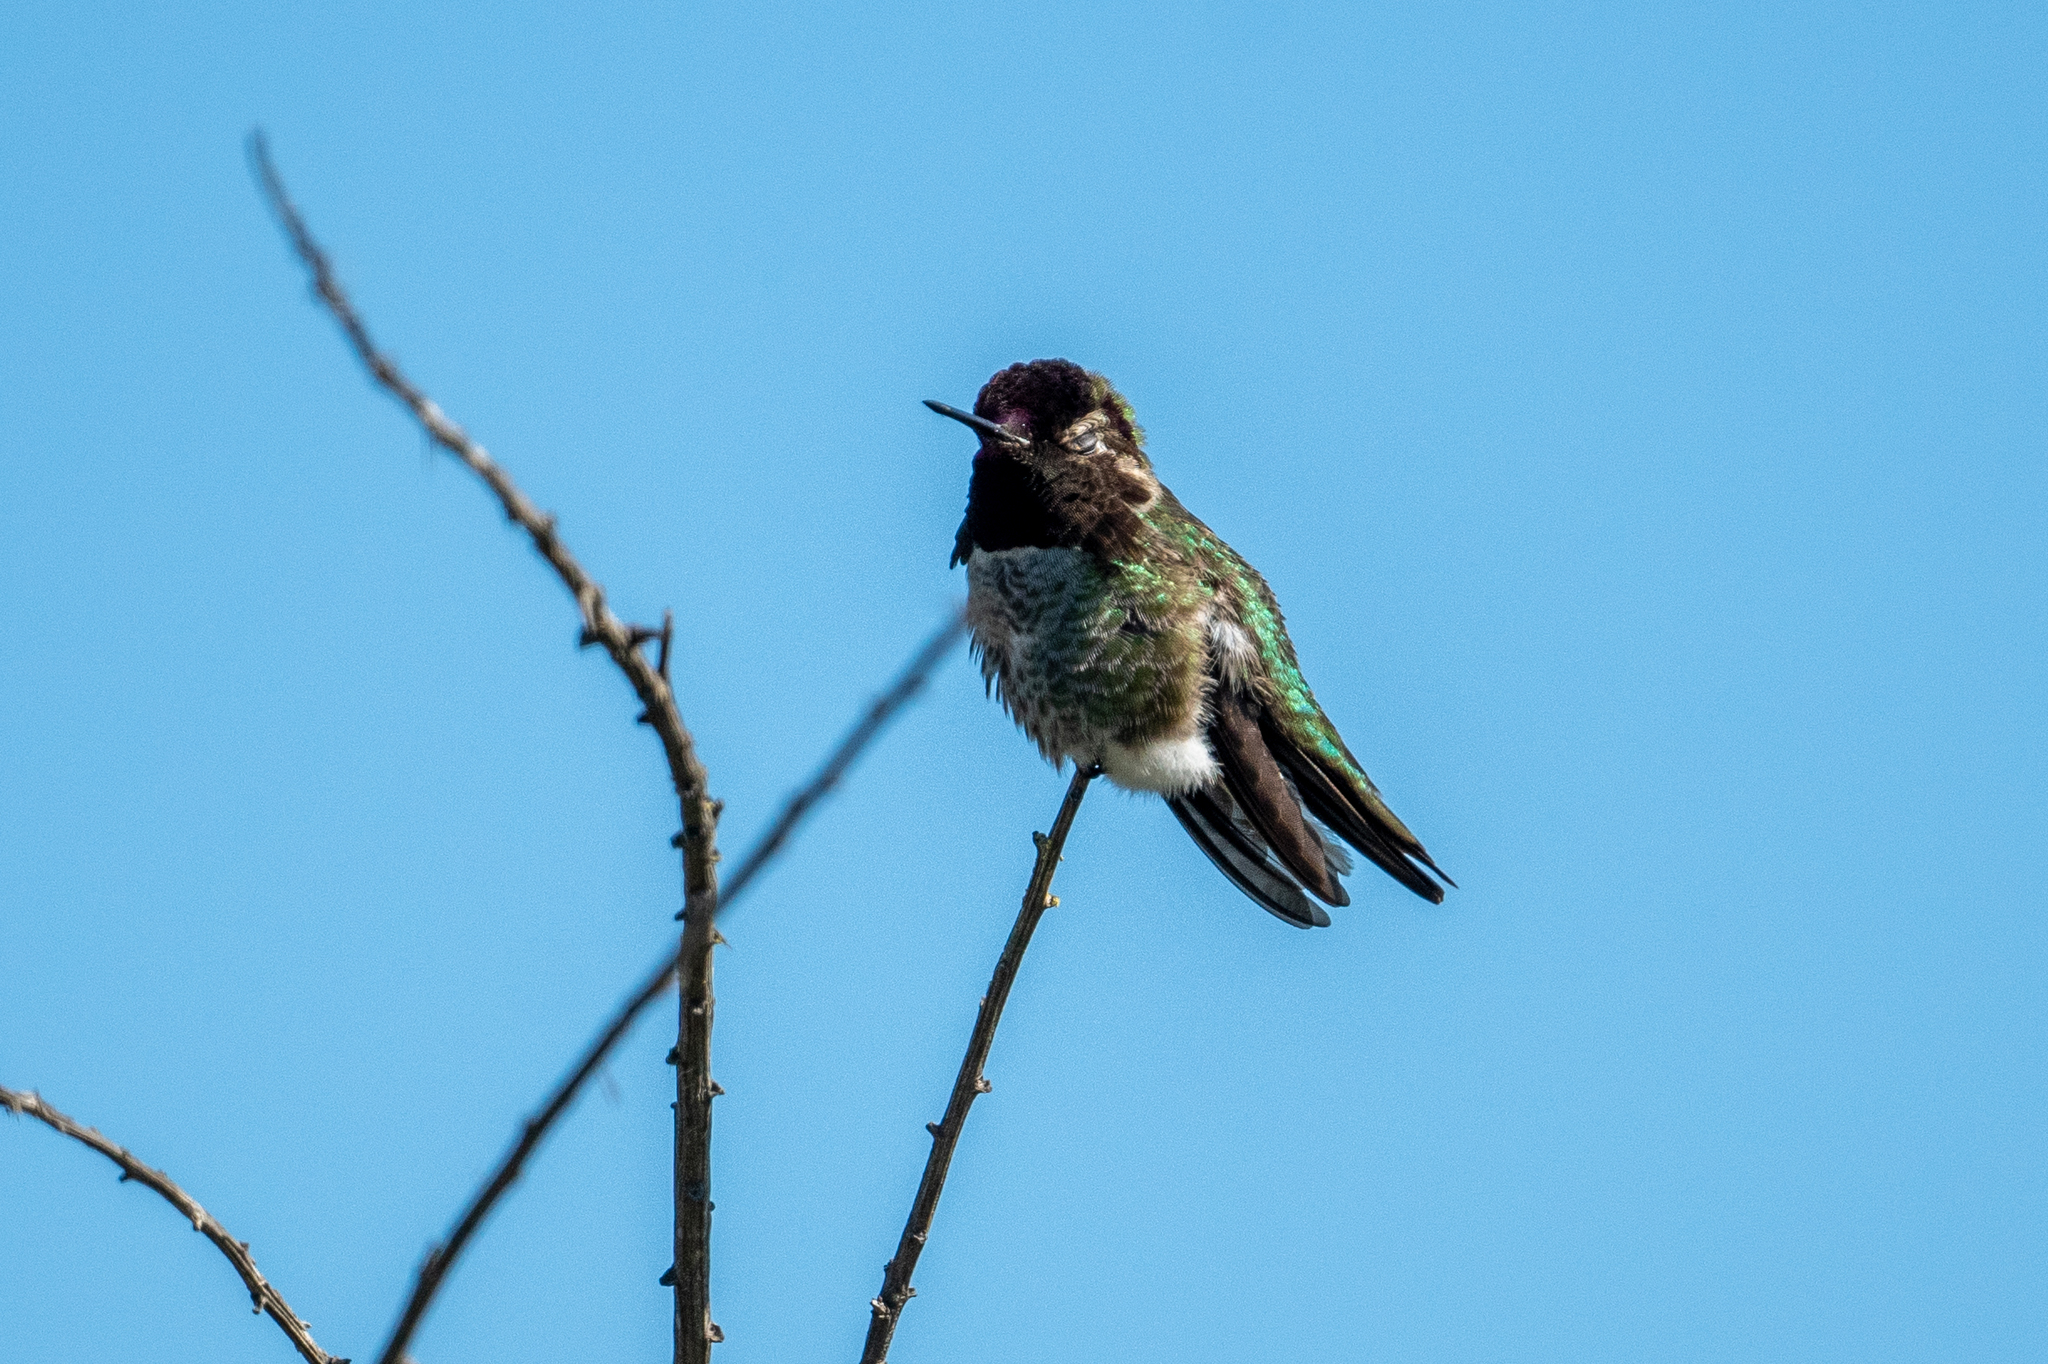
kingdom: Animalia
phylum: Chordata
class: Aves
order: Apodiformes
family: Trochilidae
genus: Calypte
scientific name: Calypte anna
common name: Anna's hummingbird
